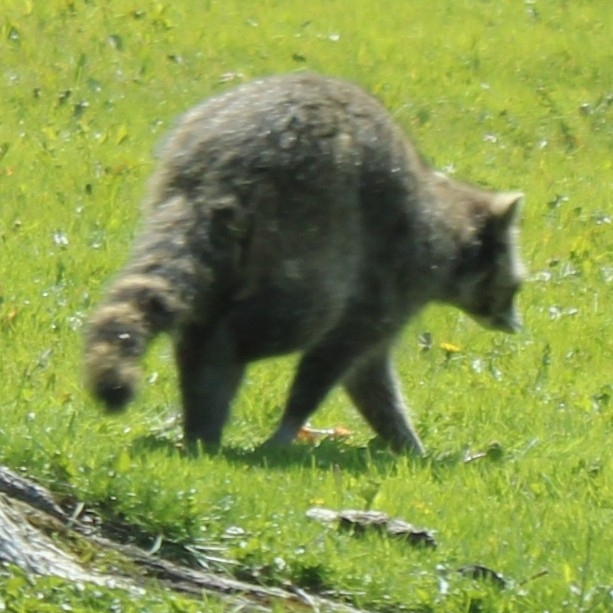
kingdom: Animalia
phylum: Chordata
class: Mammalia
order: Carnivora
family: Procyonidae
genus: Procyon
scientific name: Procyon lotor
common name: Raccoon
